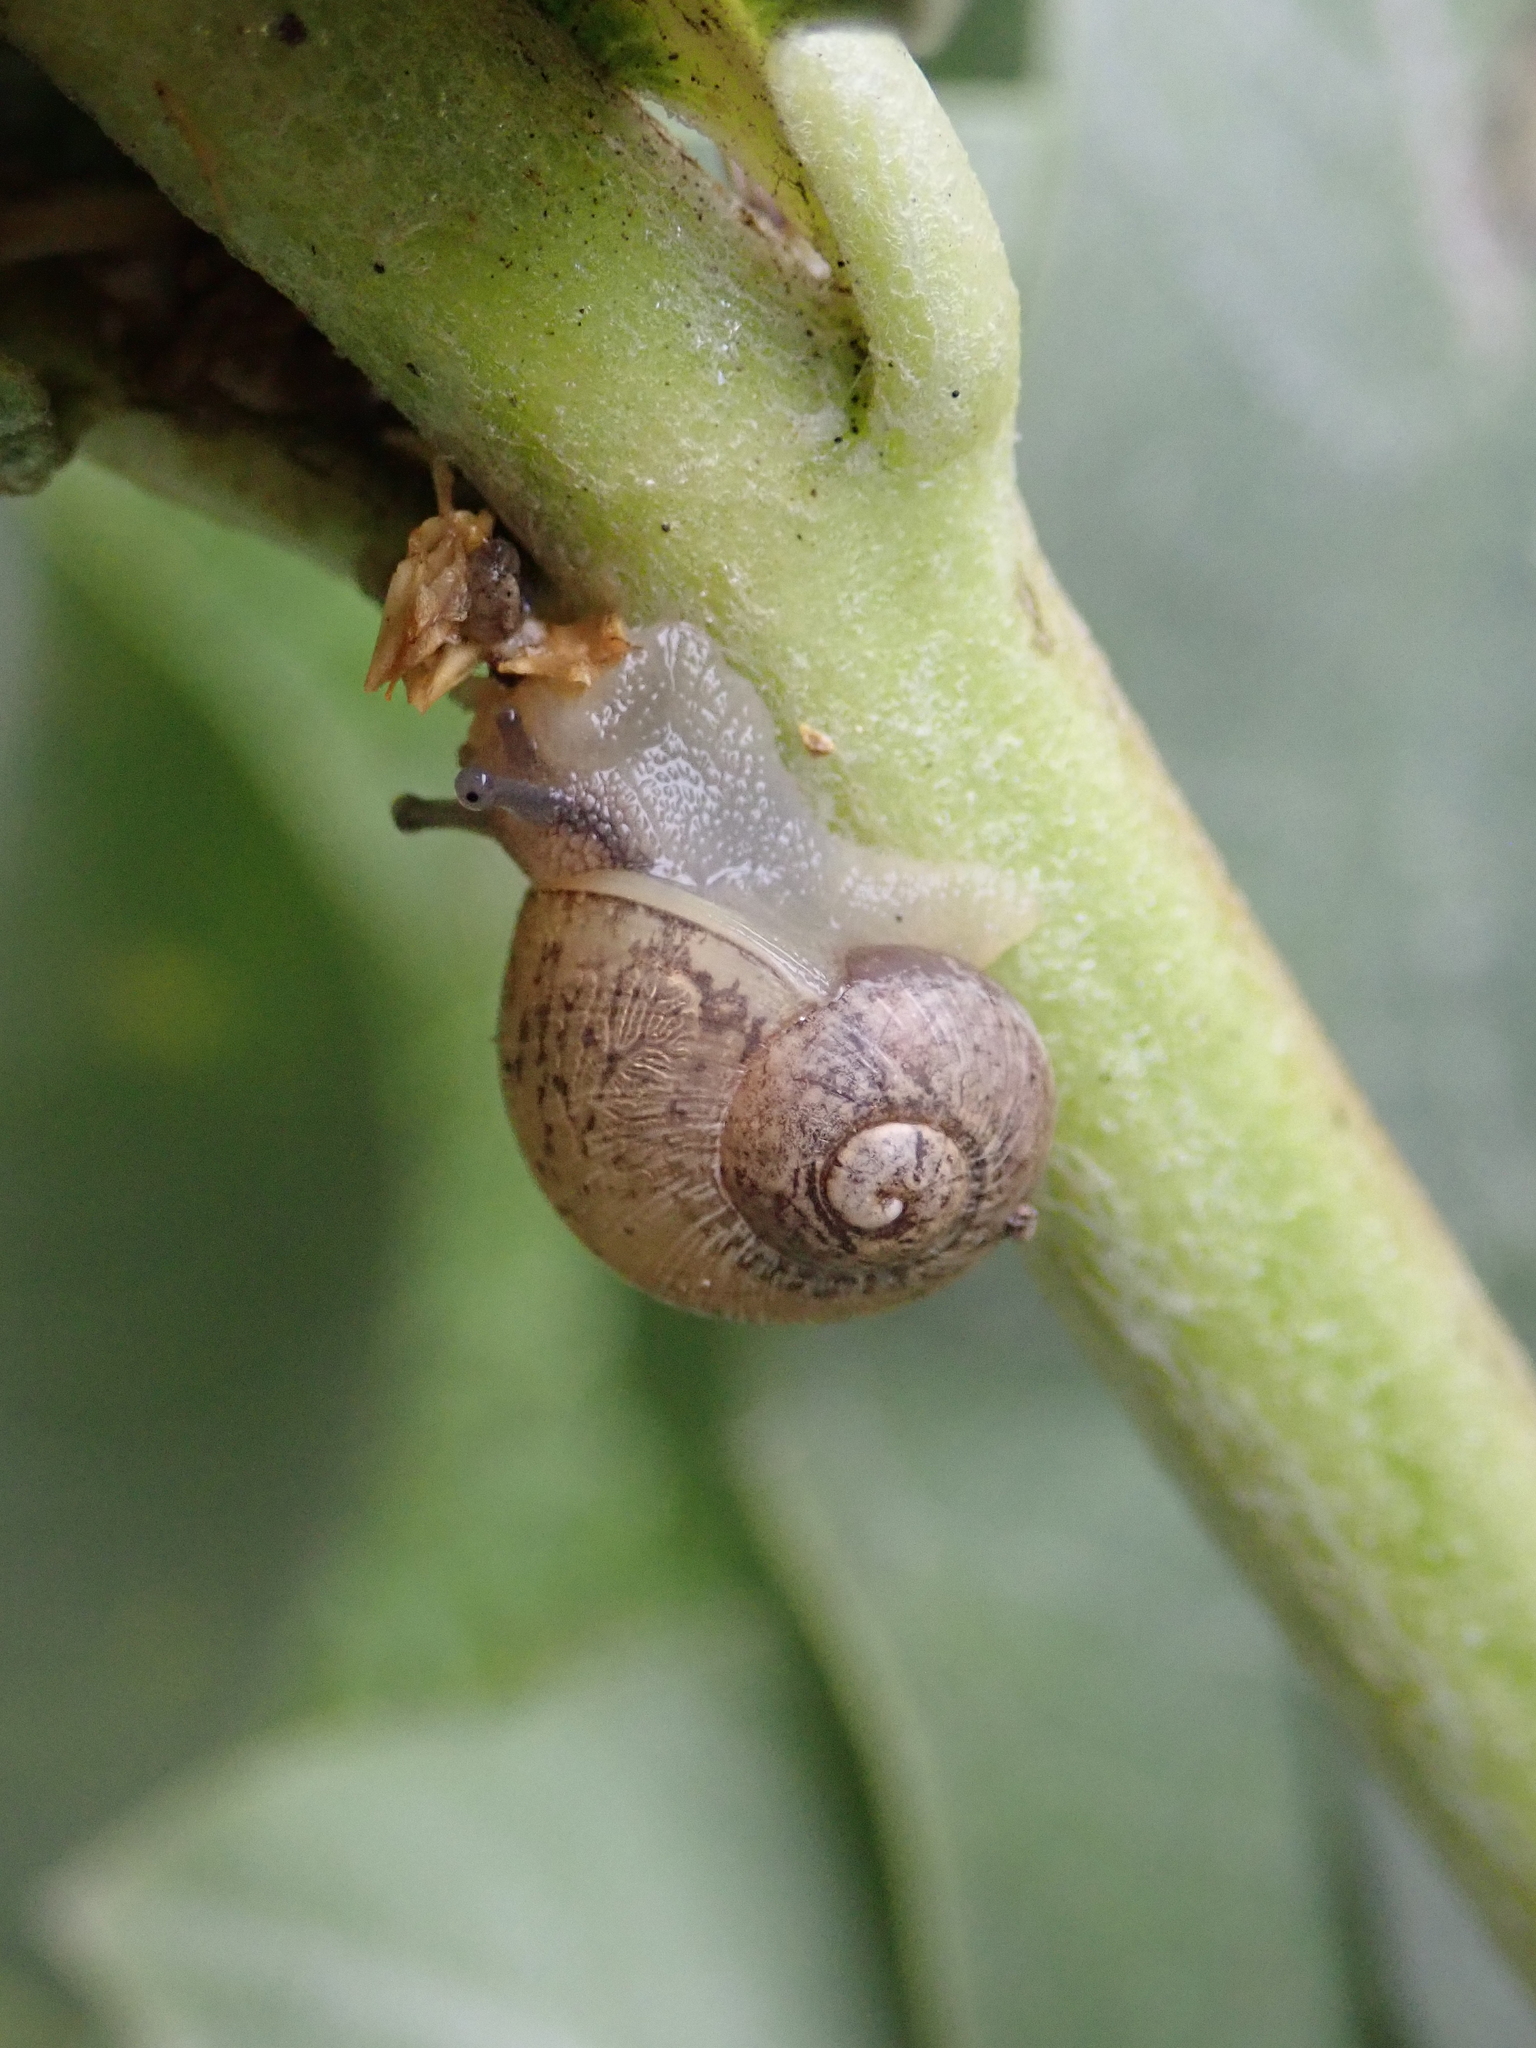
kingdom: Animalia
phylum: Mollusca
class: Gastropoda
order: Stylommatophora
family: Helicidae
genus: Cornu
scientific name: Cornu aspersum
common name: Brown garden snail
